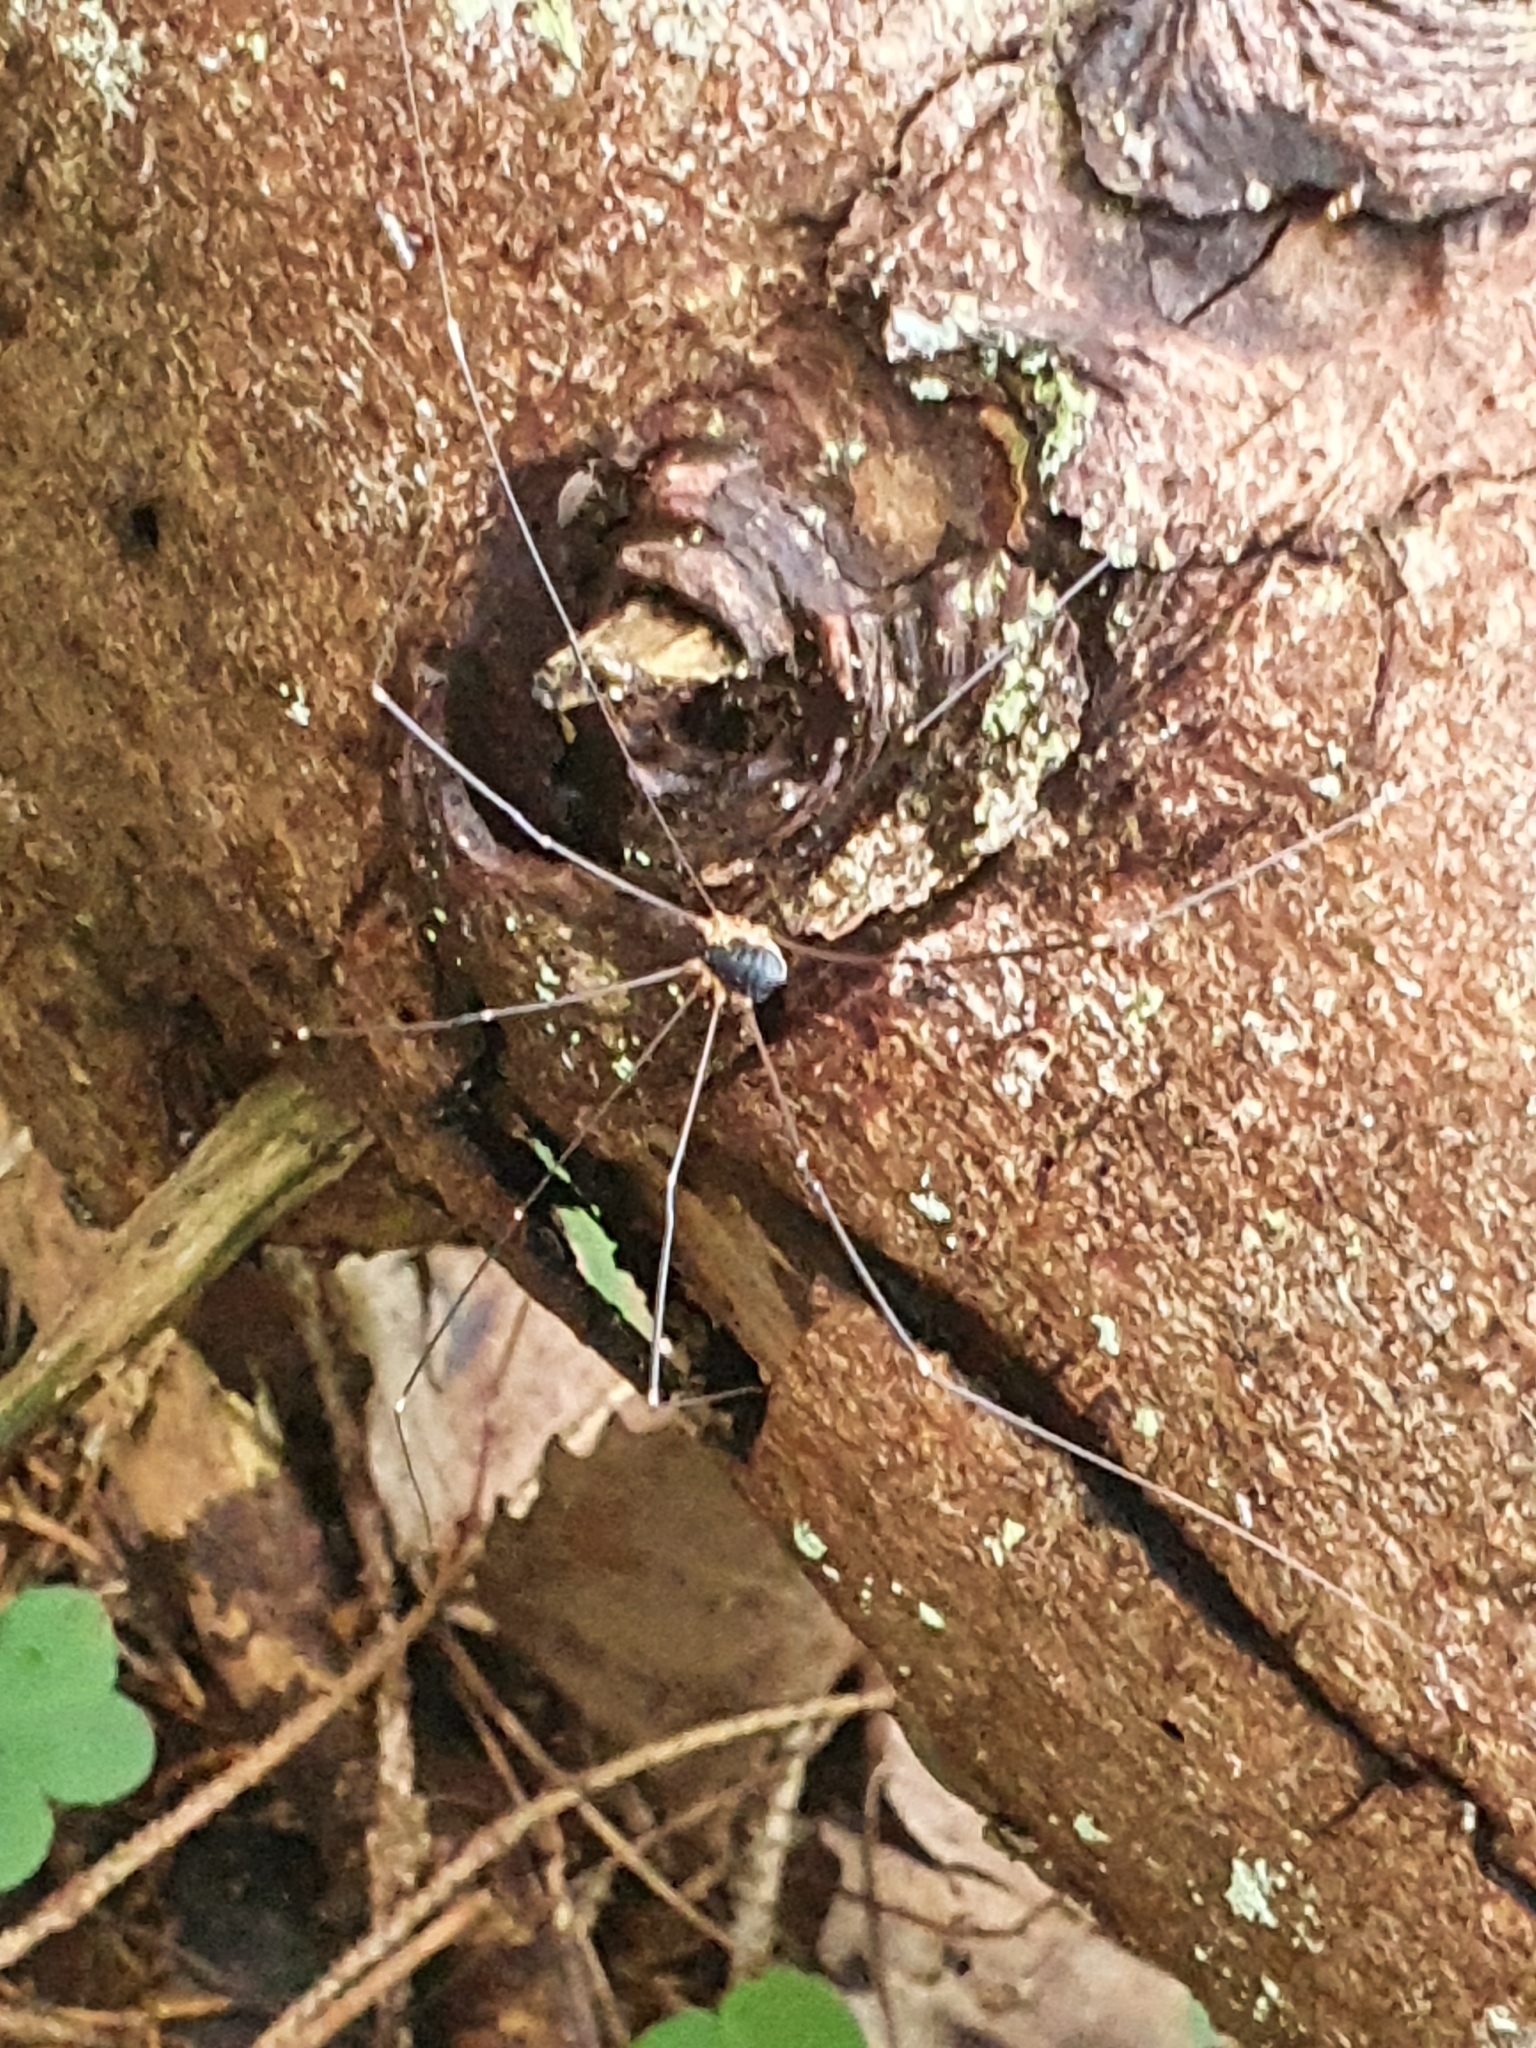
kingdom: Animalia
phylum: Arthropoda
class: Arachnida
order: Opiliones
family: Sclerosomatidae
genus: Leiobunum
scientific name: Leiobunum rupestre
